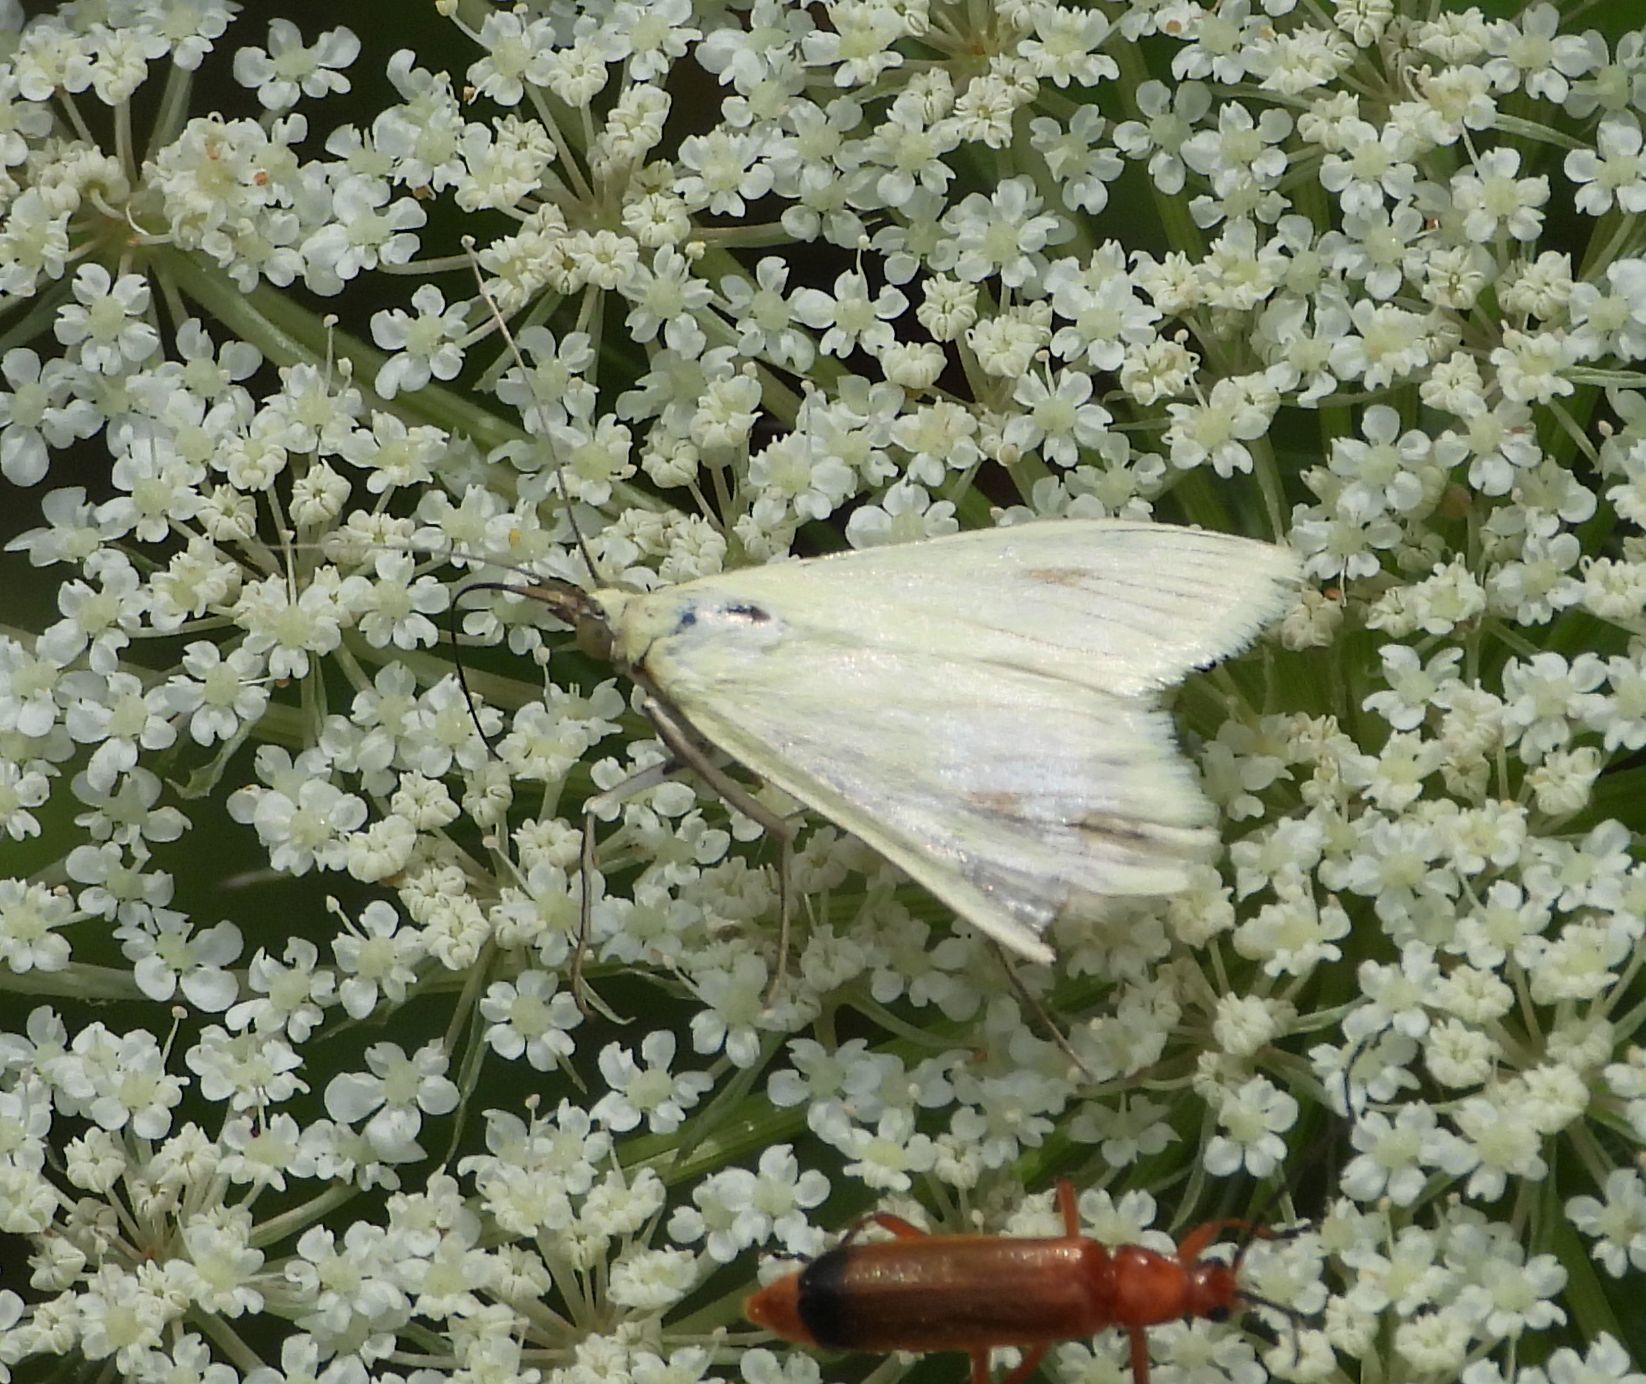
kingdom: Animalia
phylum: Arthropoda
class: Insecta
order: Lepidoptera
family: Crambidae
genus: Sitochroa
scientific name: Sitochroa palealis
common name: Greenish-yellow sitochroa moth
